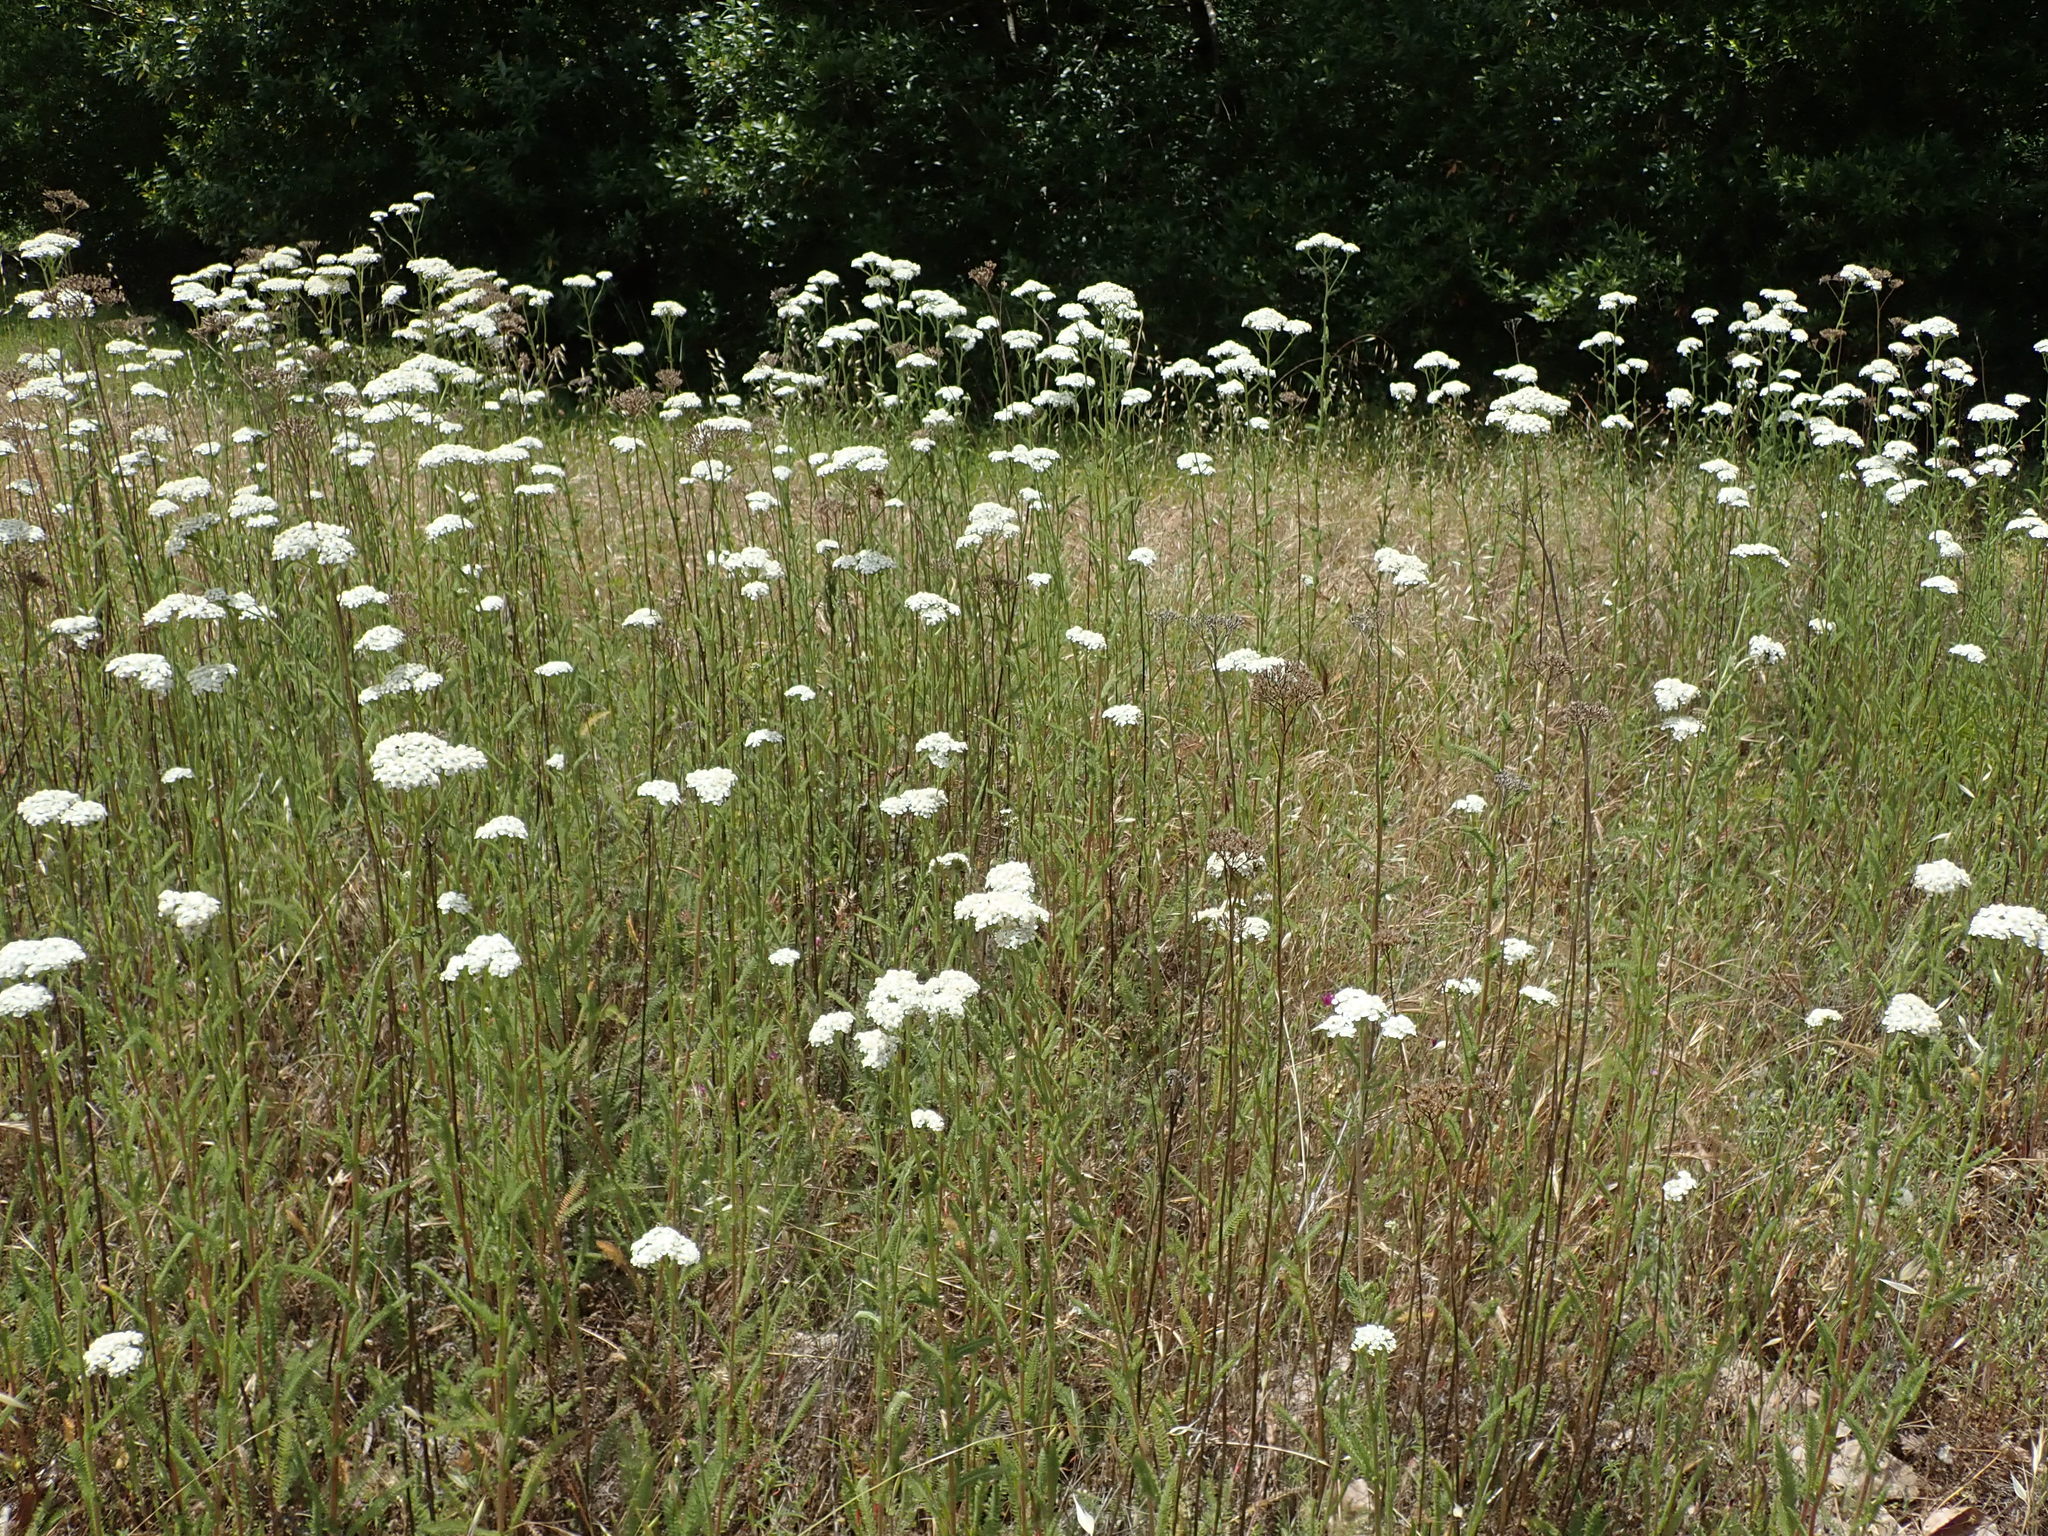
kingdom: Plantae
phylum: Tracheophyta
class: Magnoliopsida
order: Asterales
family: Asteraceae
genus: Achillea
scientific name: Achillea millefolium
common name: Yarrow
